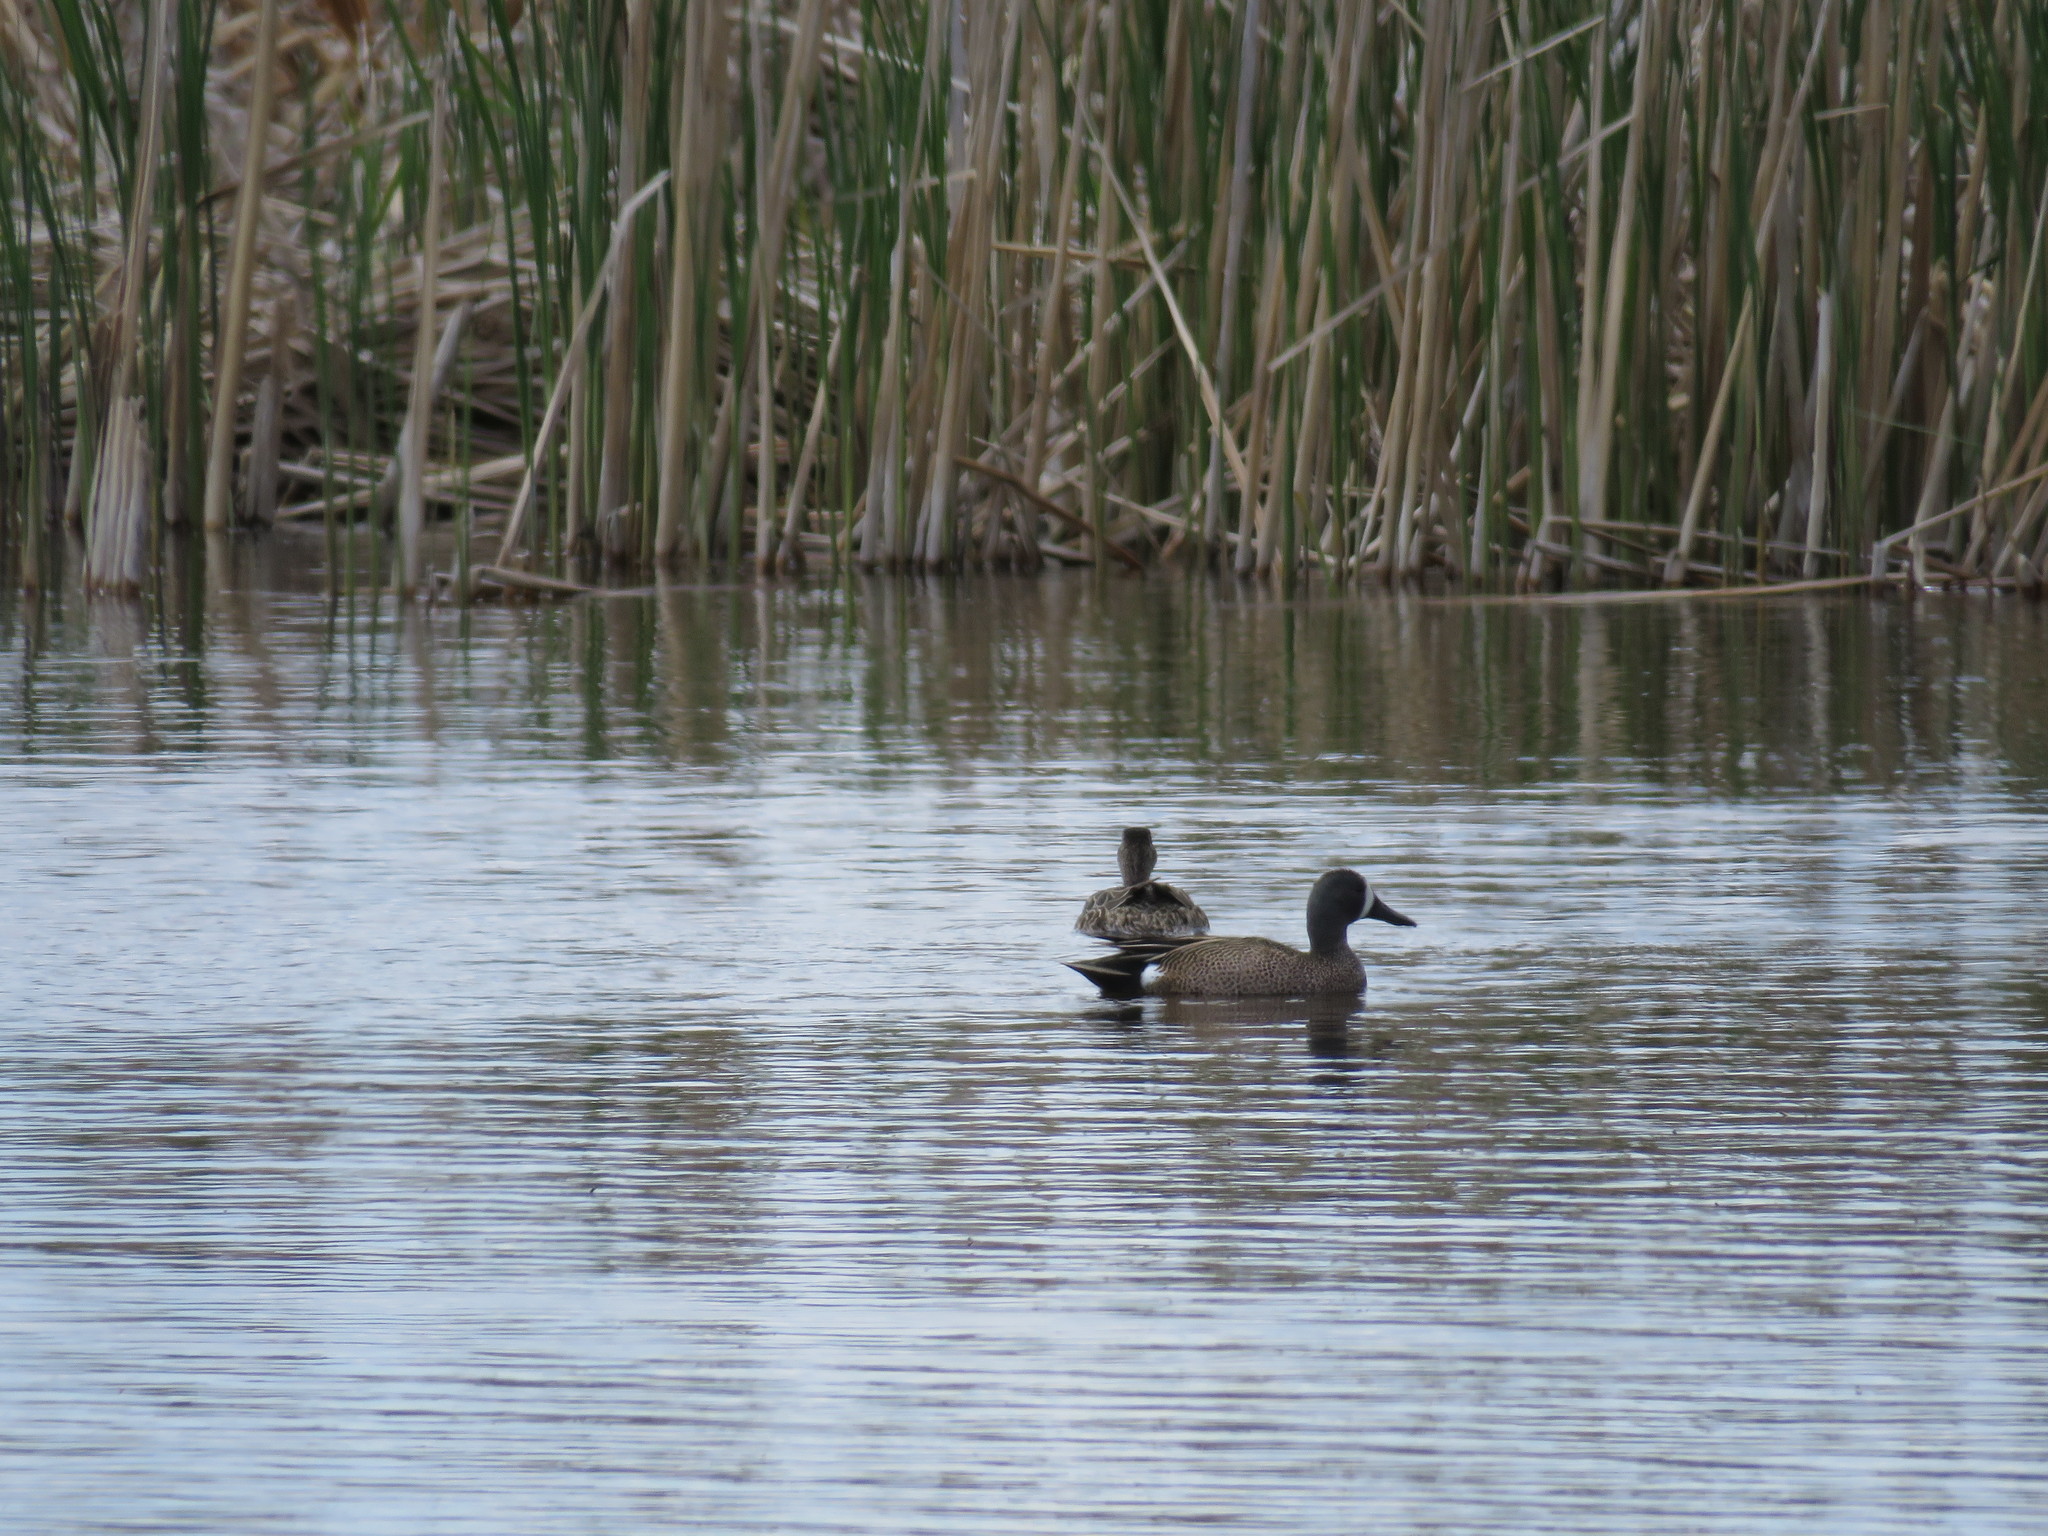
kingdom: Animalia
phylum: Chordata
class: Aves
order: Anseriformes
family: Anatidae
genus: Spatula
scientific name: Spatula discors
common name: Blue-winged teal
